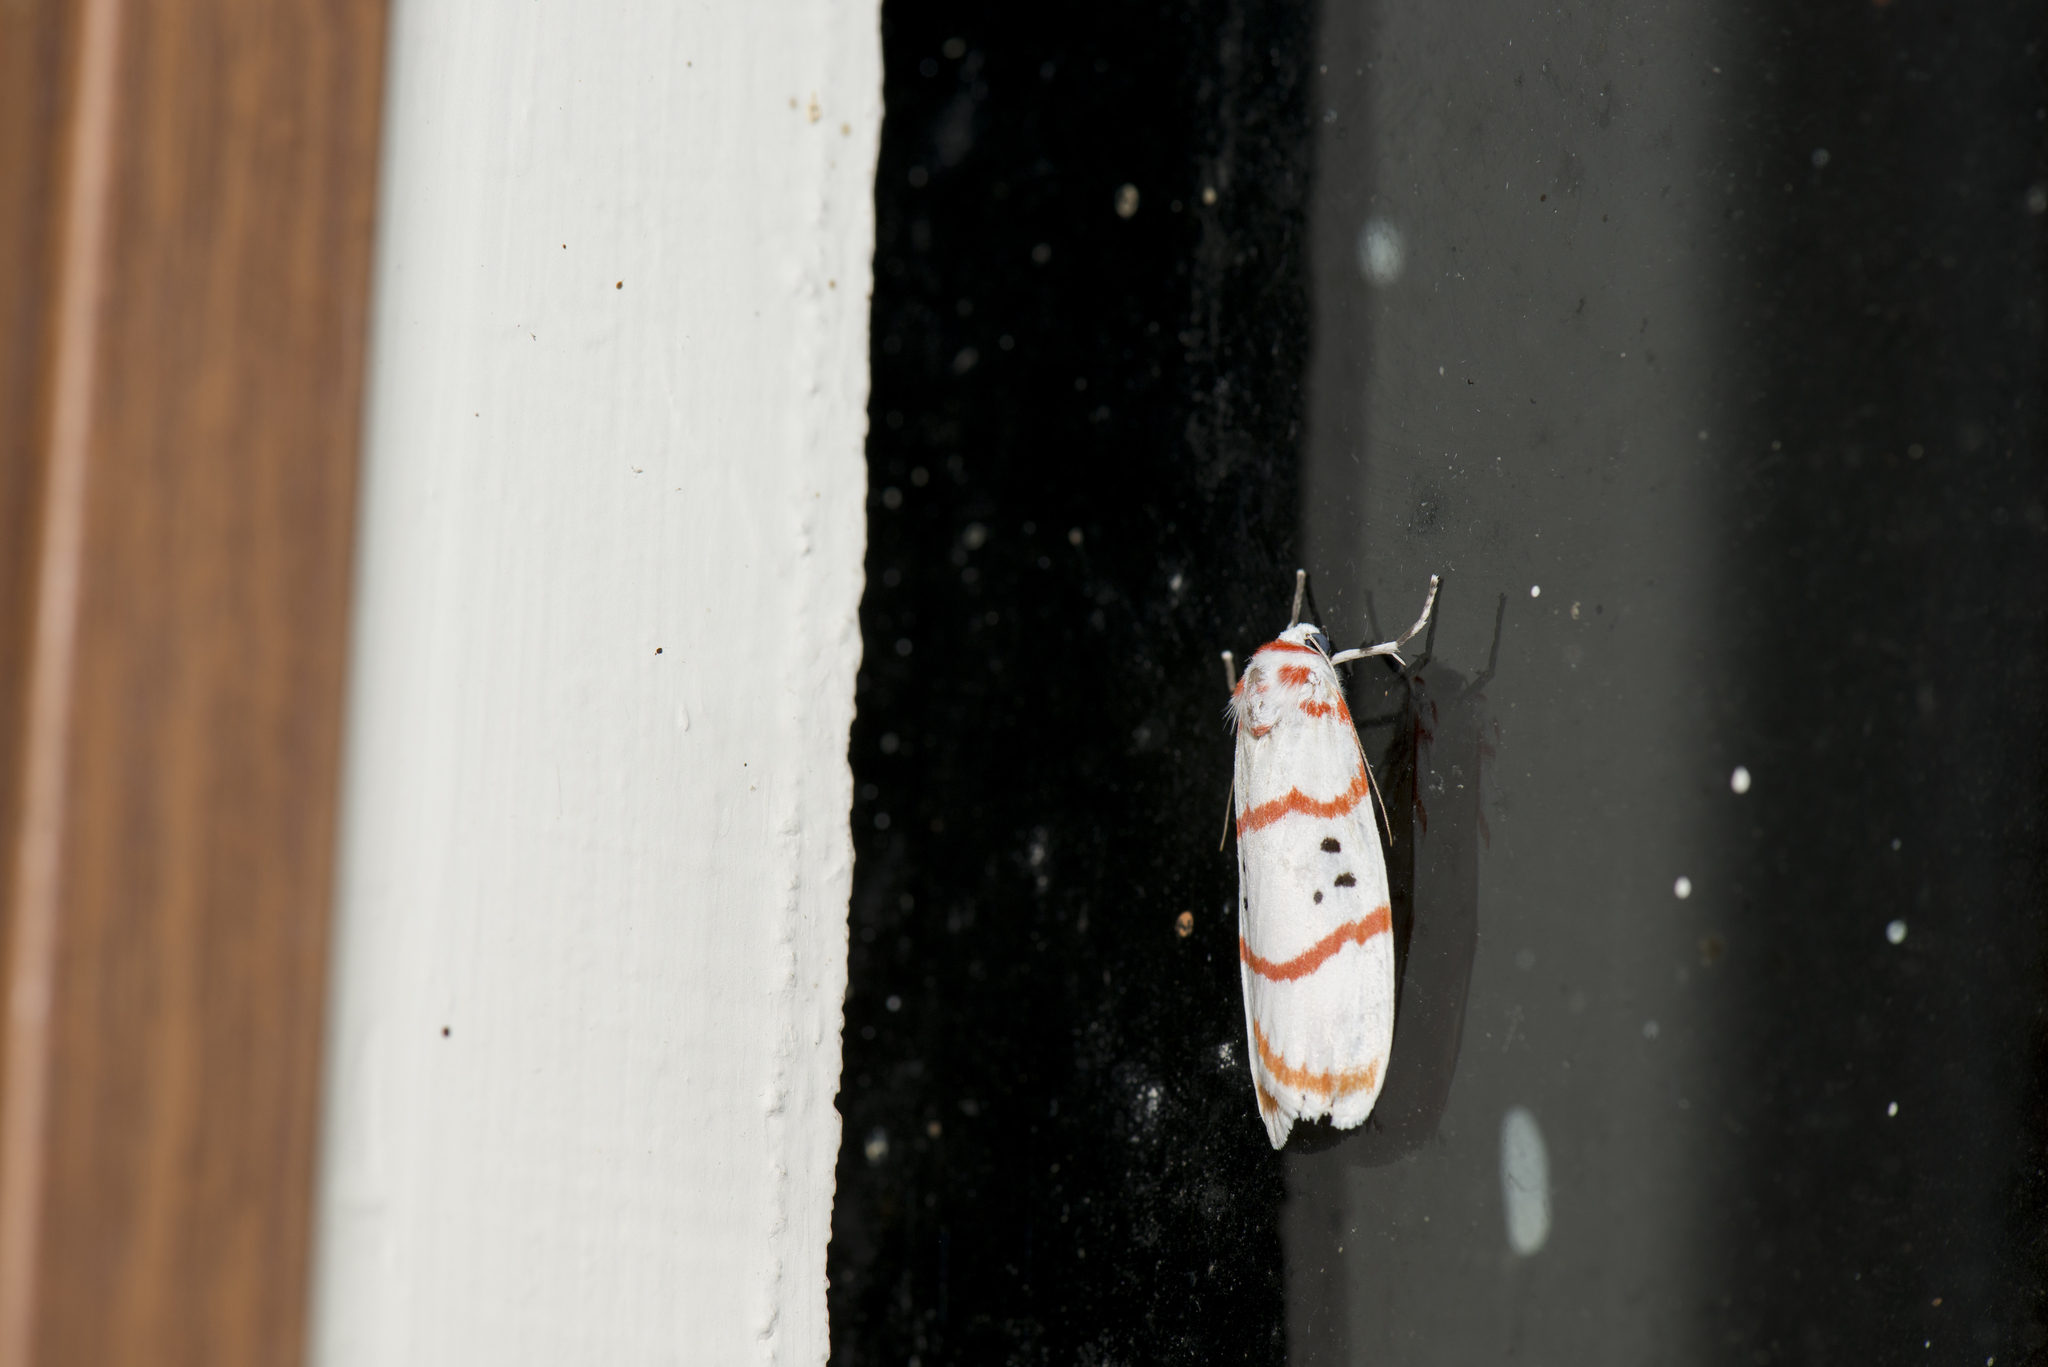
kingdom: Animalia
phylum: Arthropoda
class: Insecta
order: Lepidoptera
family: Erebidae
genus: Cyana
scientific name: Cyana subalba
